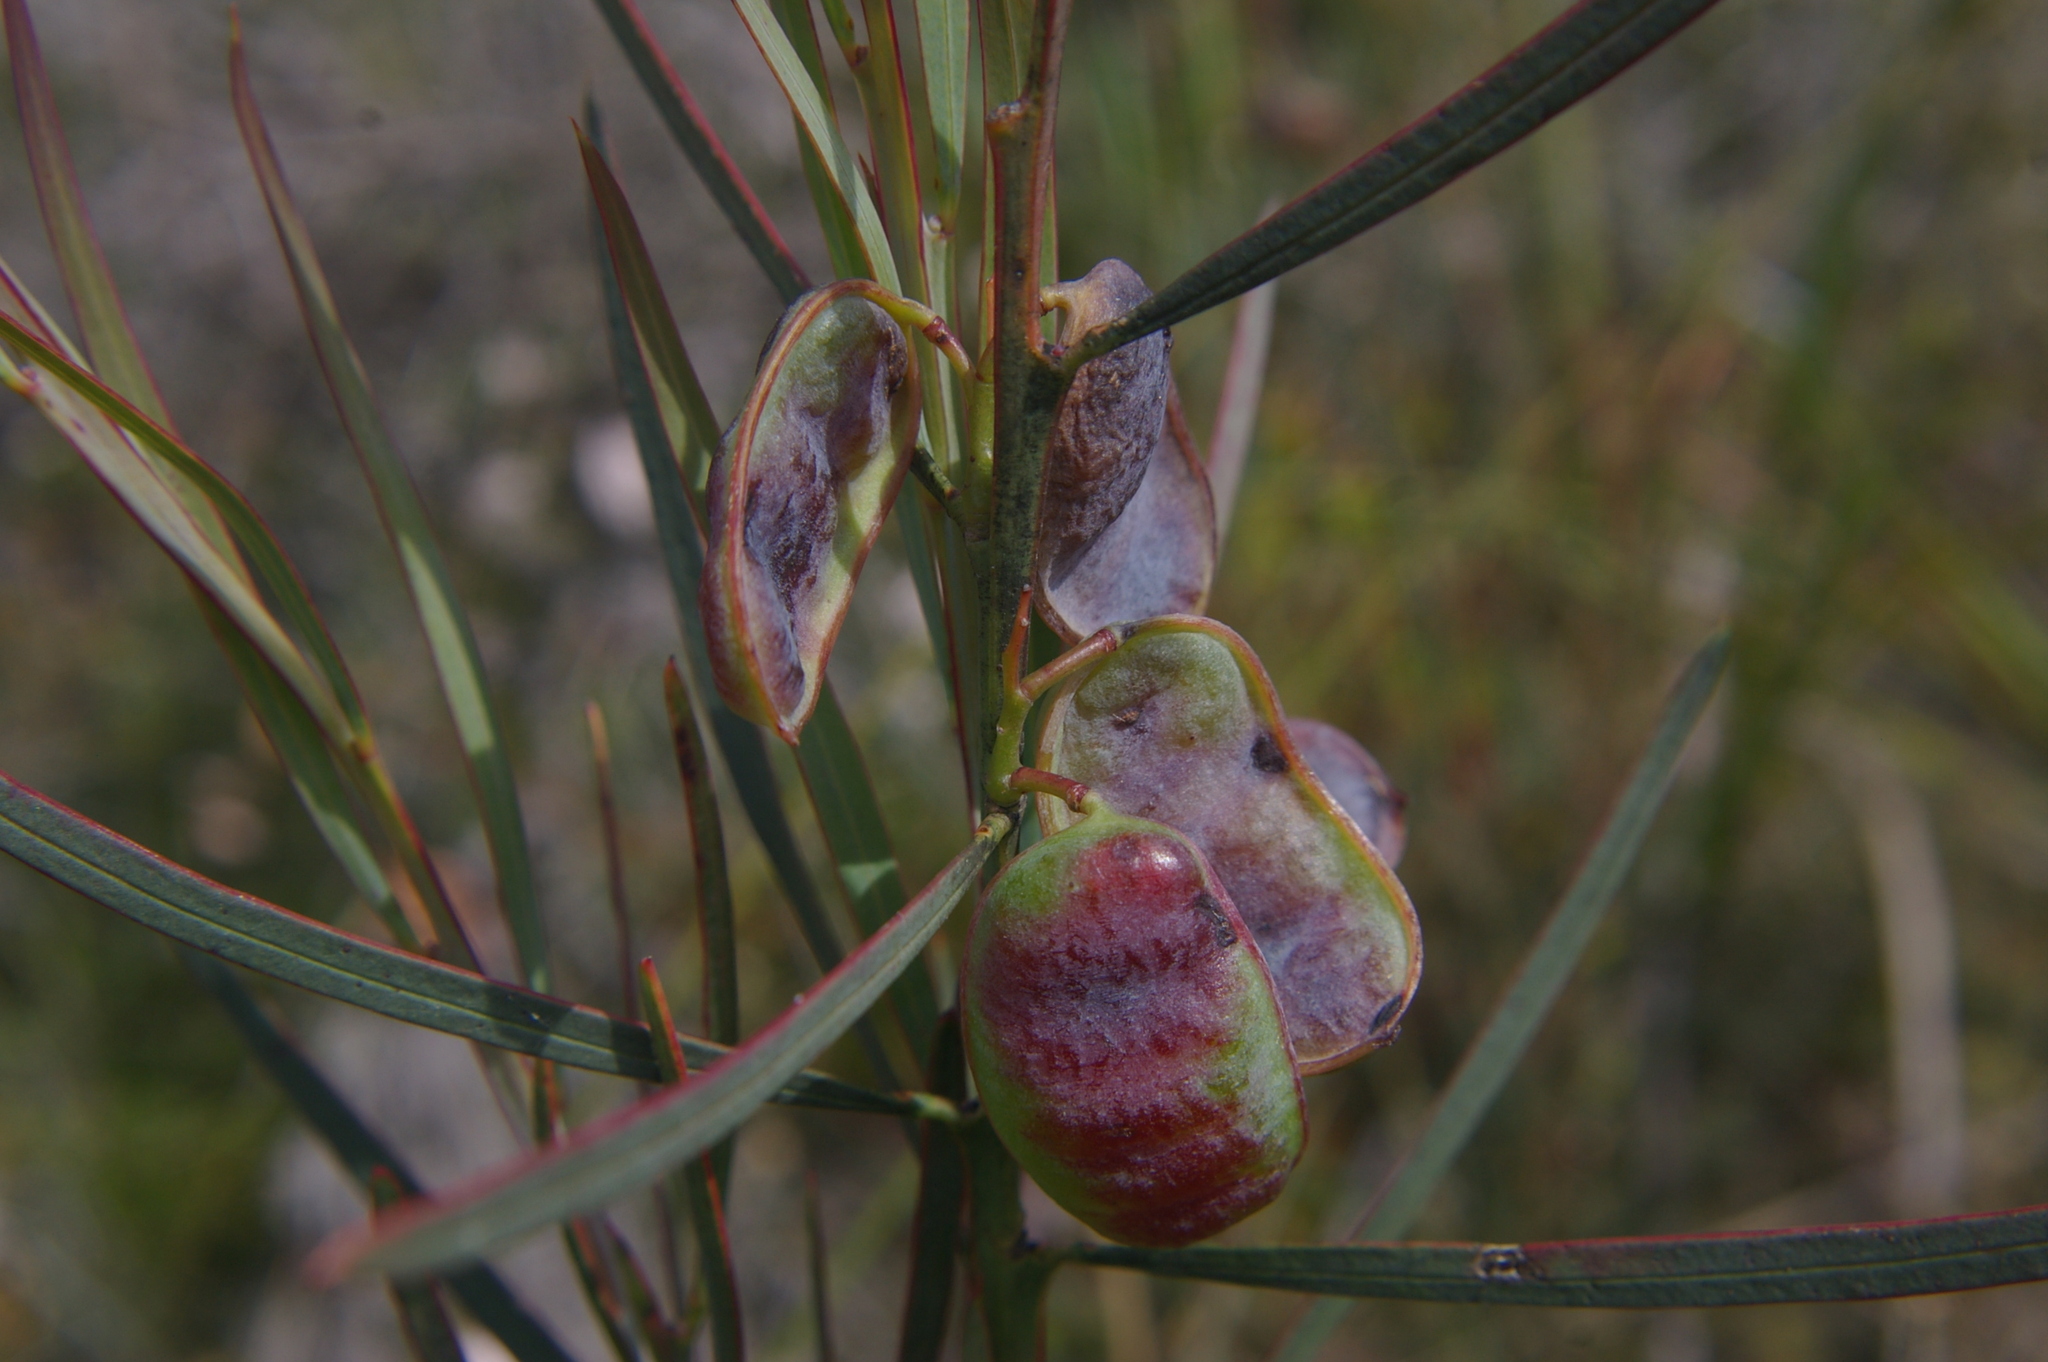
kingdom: Plantae
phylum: Tracheophyta
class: Magnoliopsida
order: Fabales
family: Fabaceae
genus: Acacia
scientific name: Acacia suaveolens
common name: Sweet acacia
